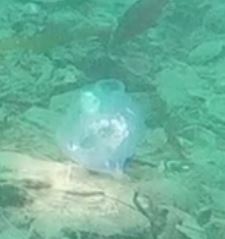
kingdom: Animalia
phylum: Chordata
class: Thaliacea
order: Salpida
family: Salpidae
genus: Thetys
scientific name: Thetys vagina
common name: Vagina salp
